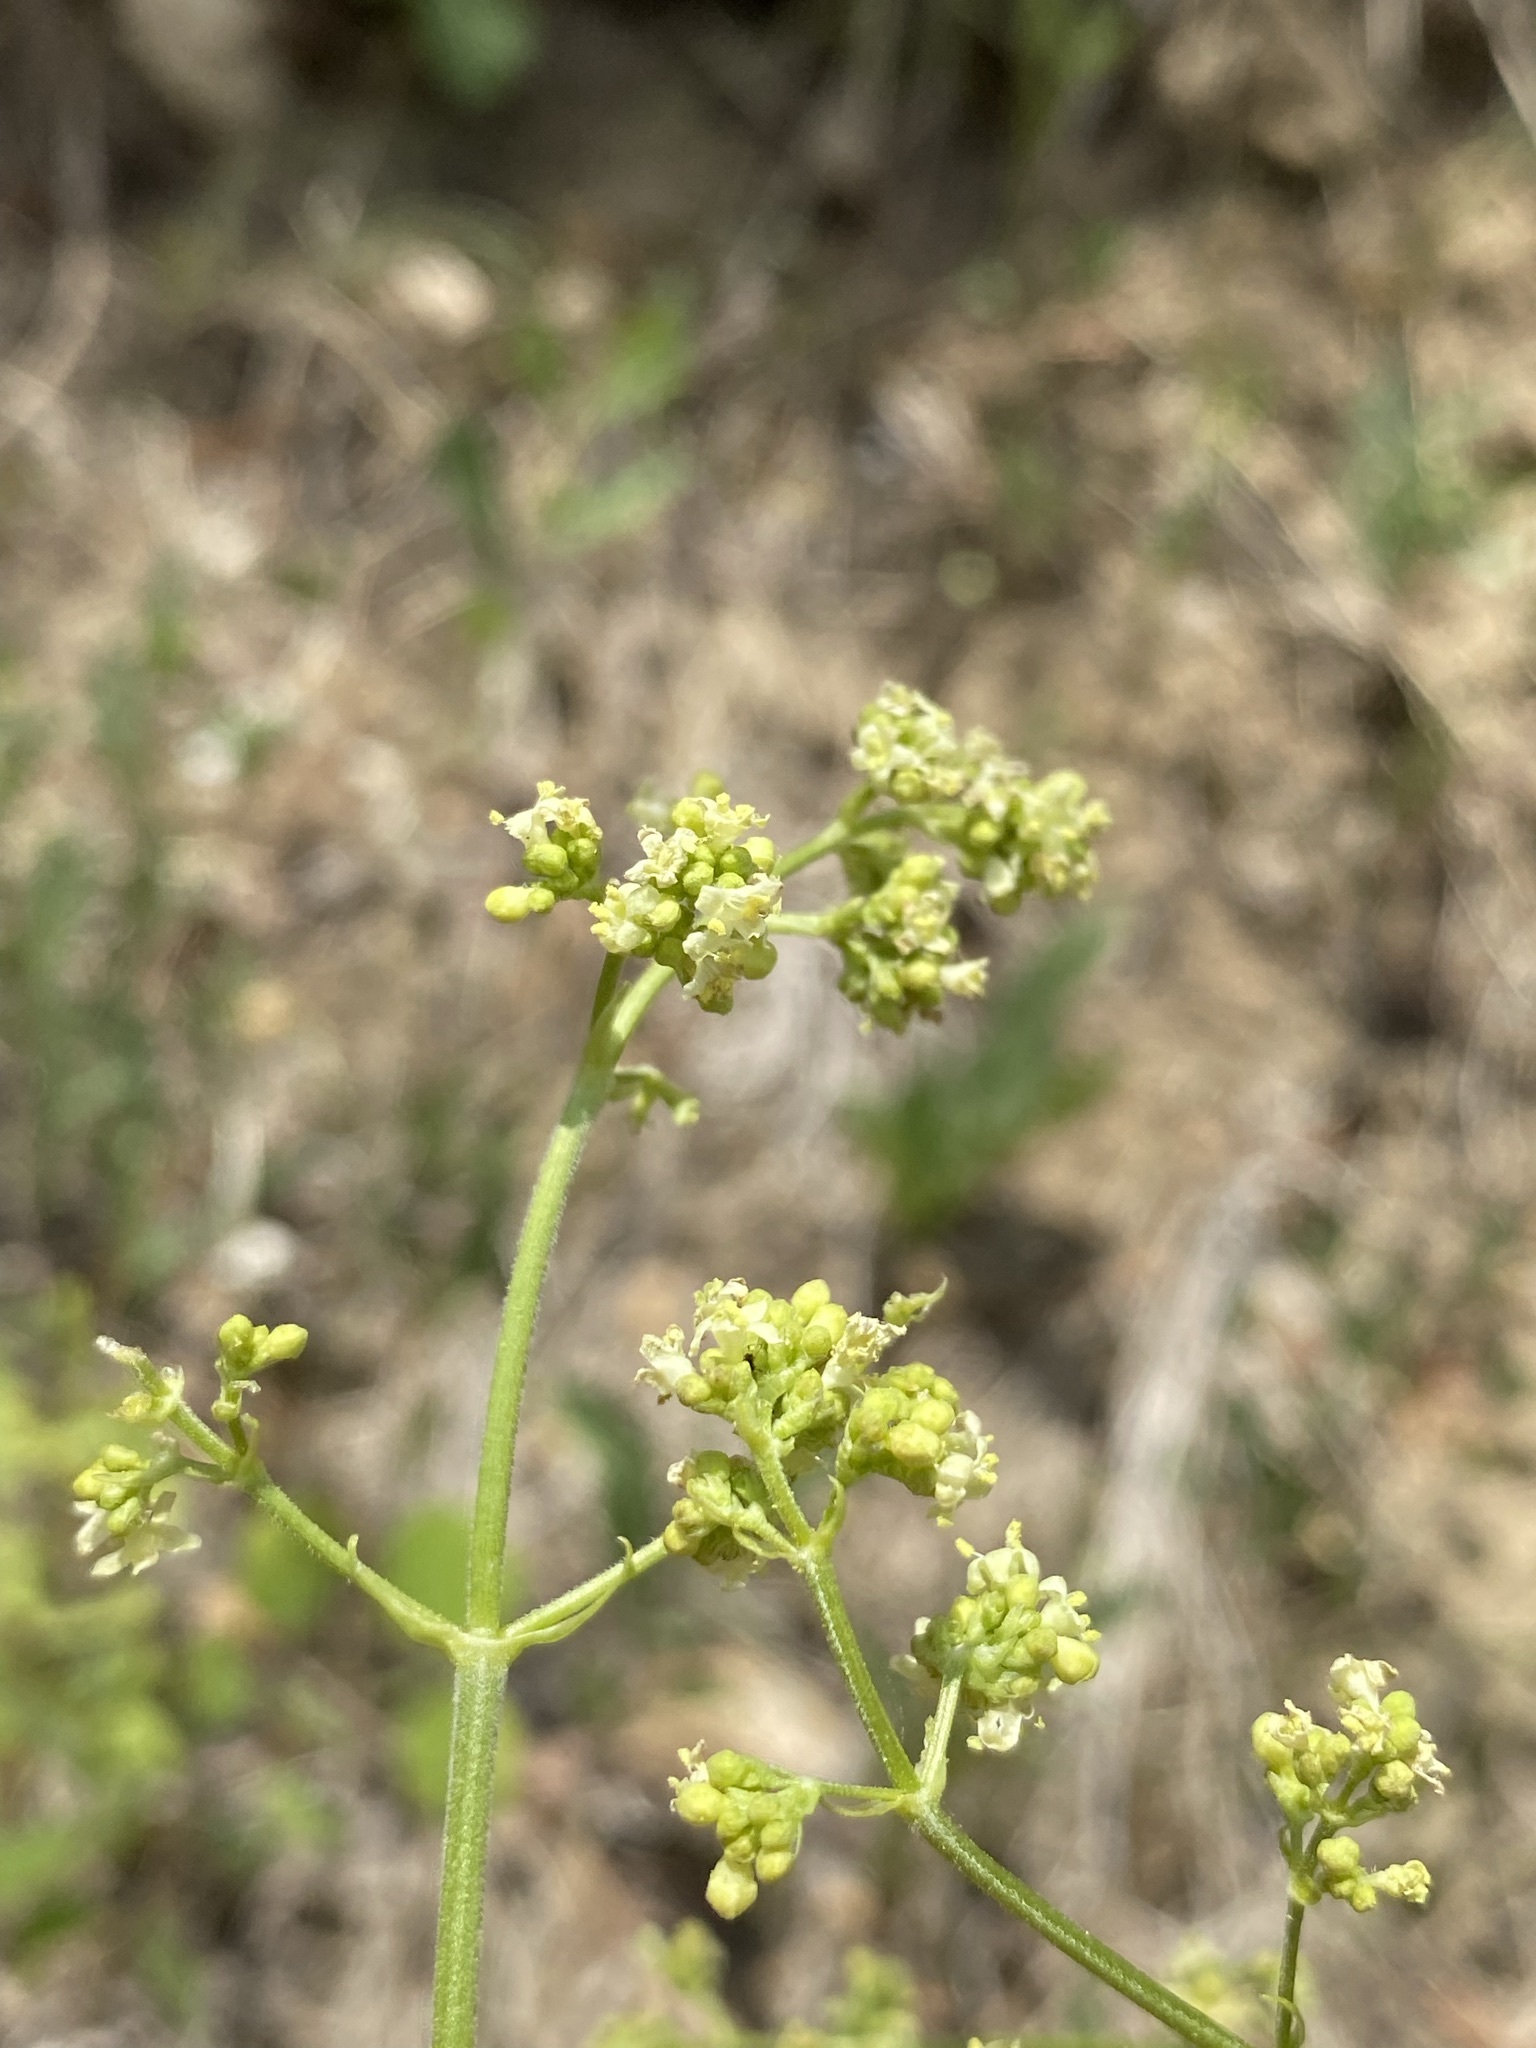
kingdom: Plantae
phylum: Tracheophyta
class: Magnoliopsida
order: Dipsacales
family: Caprifoliaceae
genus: Valeriana
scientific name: Valeriana edulis
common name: Taproot valerian
